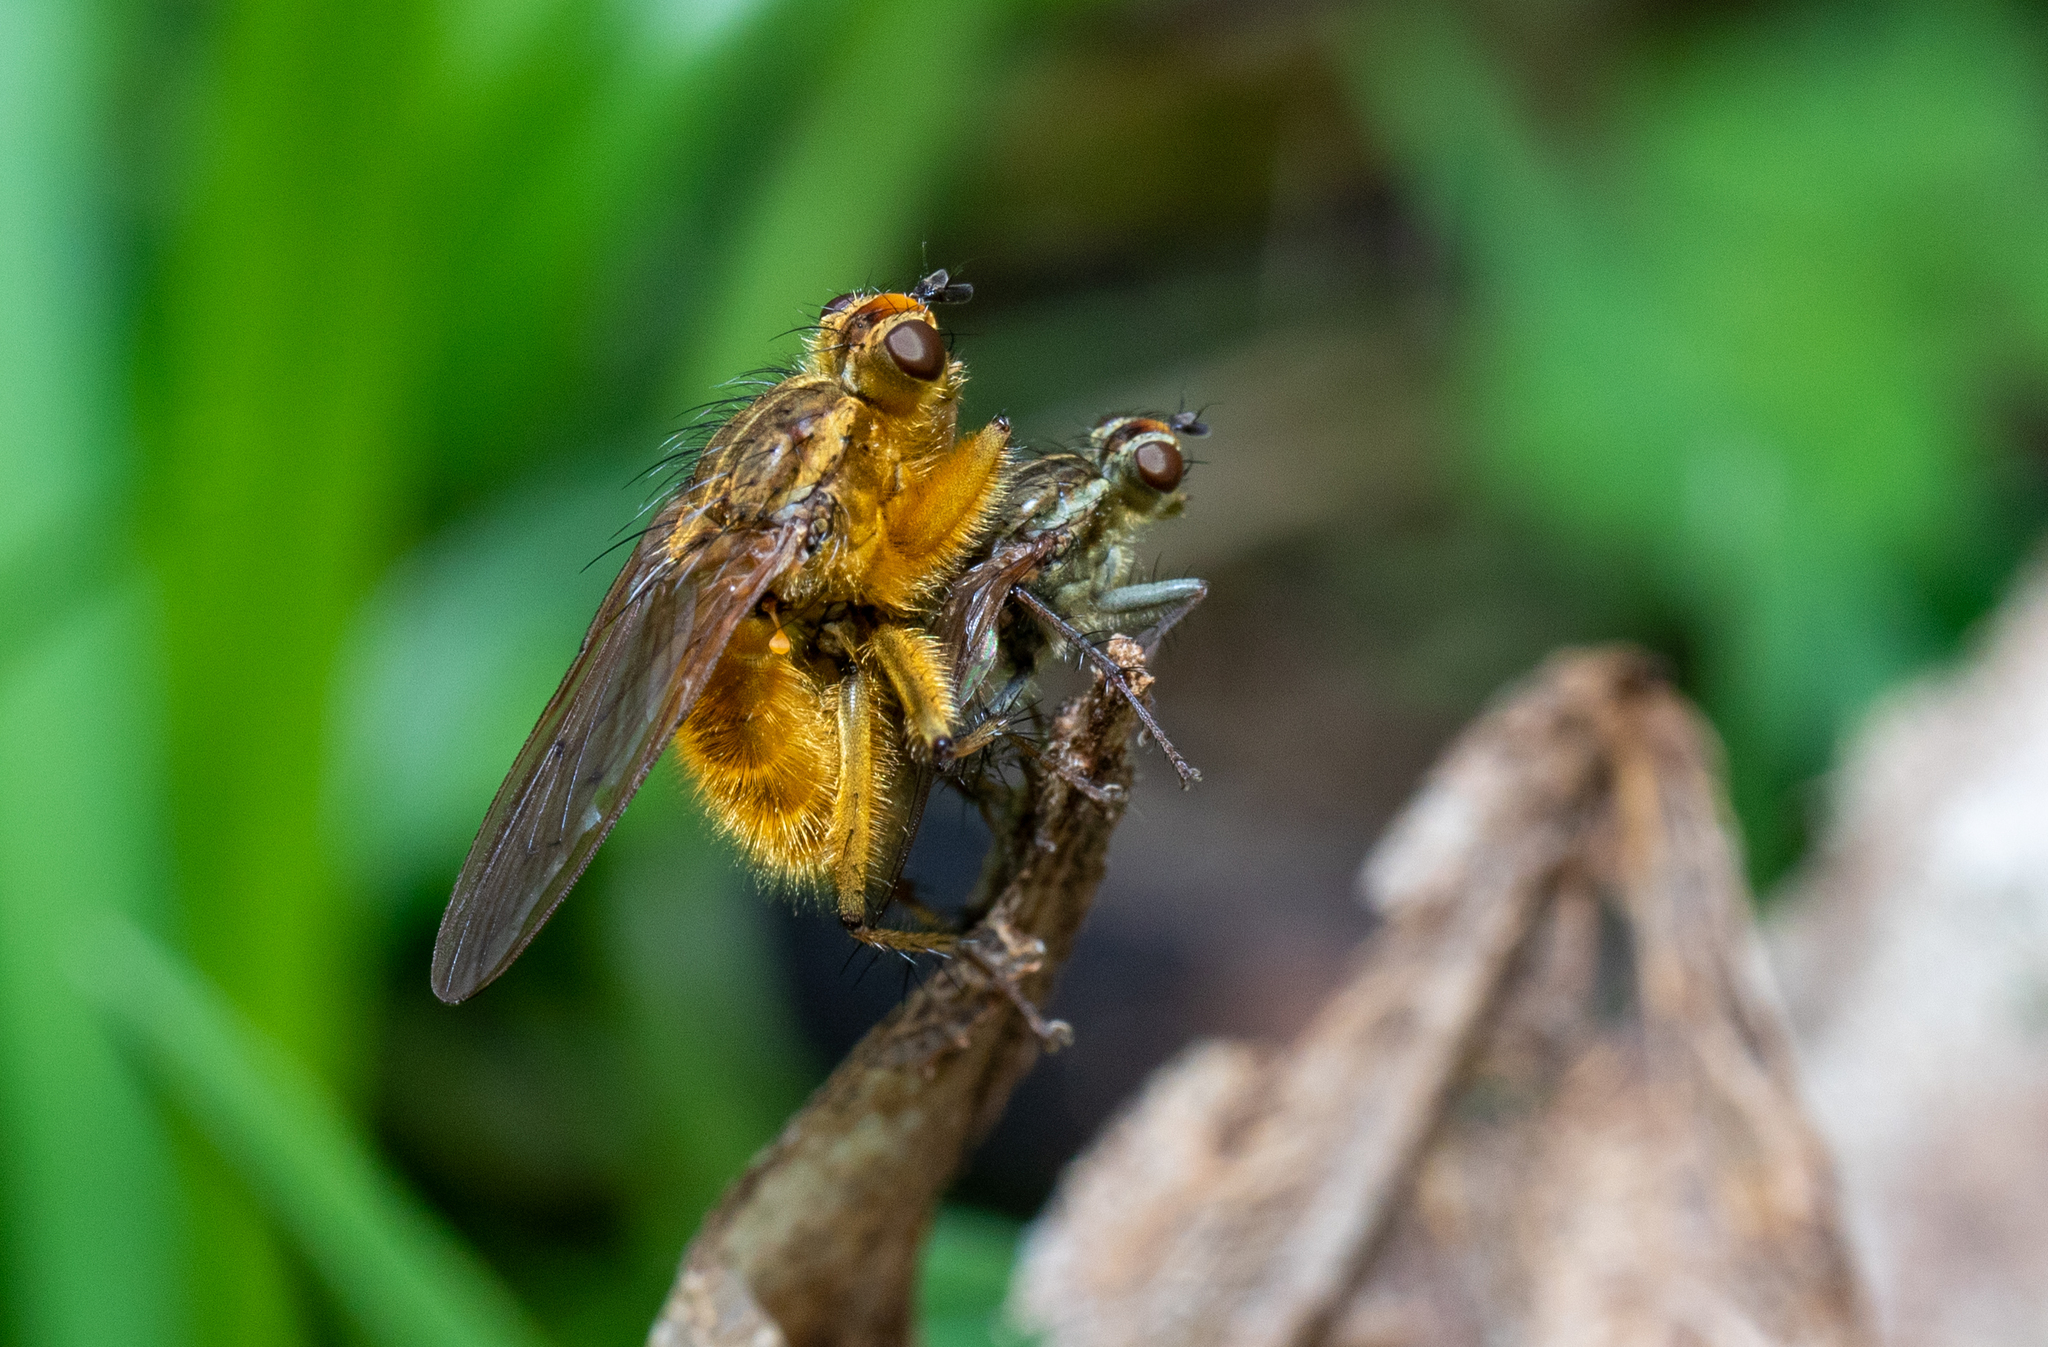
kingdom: Animalia
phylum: Arthropoda
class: Insecta
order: Diptera
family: Scathophagidae
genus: Scathophaga
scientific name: Scathophaga stercoraria
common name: Yellow dung fly
